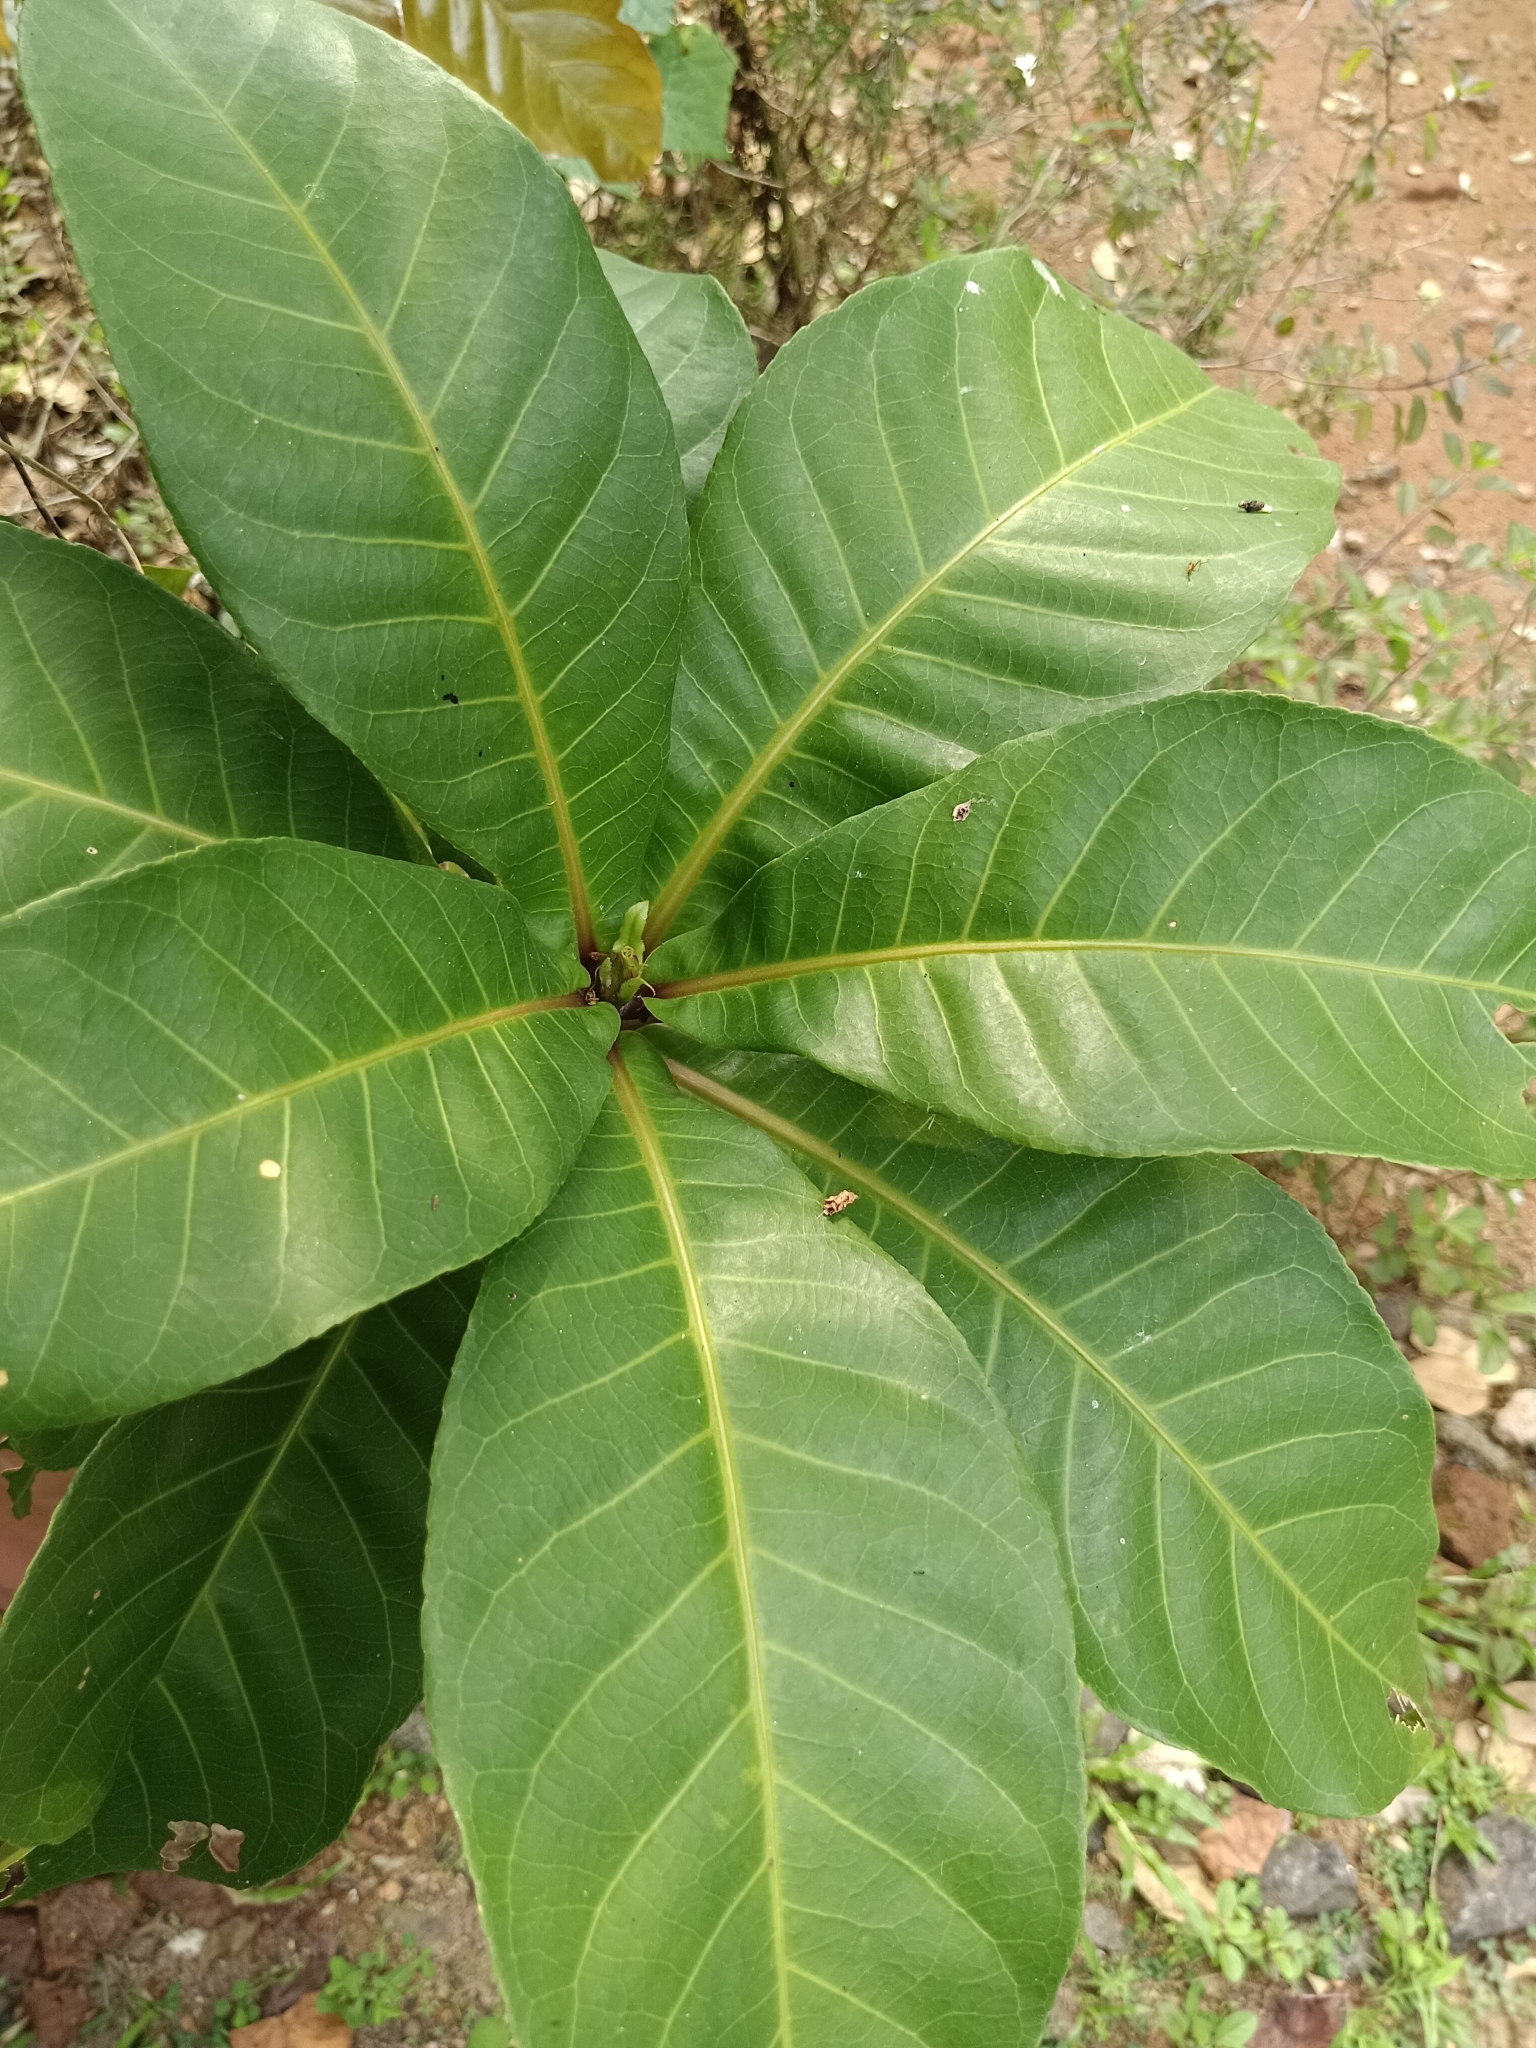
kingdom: Plantae
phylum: Tracheophyta
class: Magnoliopsida
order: Ericales
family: Lecythidaceae
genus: Barringtonia
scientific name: Barringtonia racemosa
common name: Brackwater mangrove
